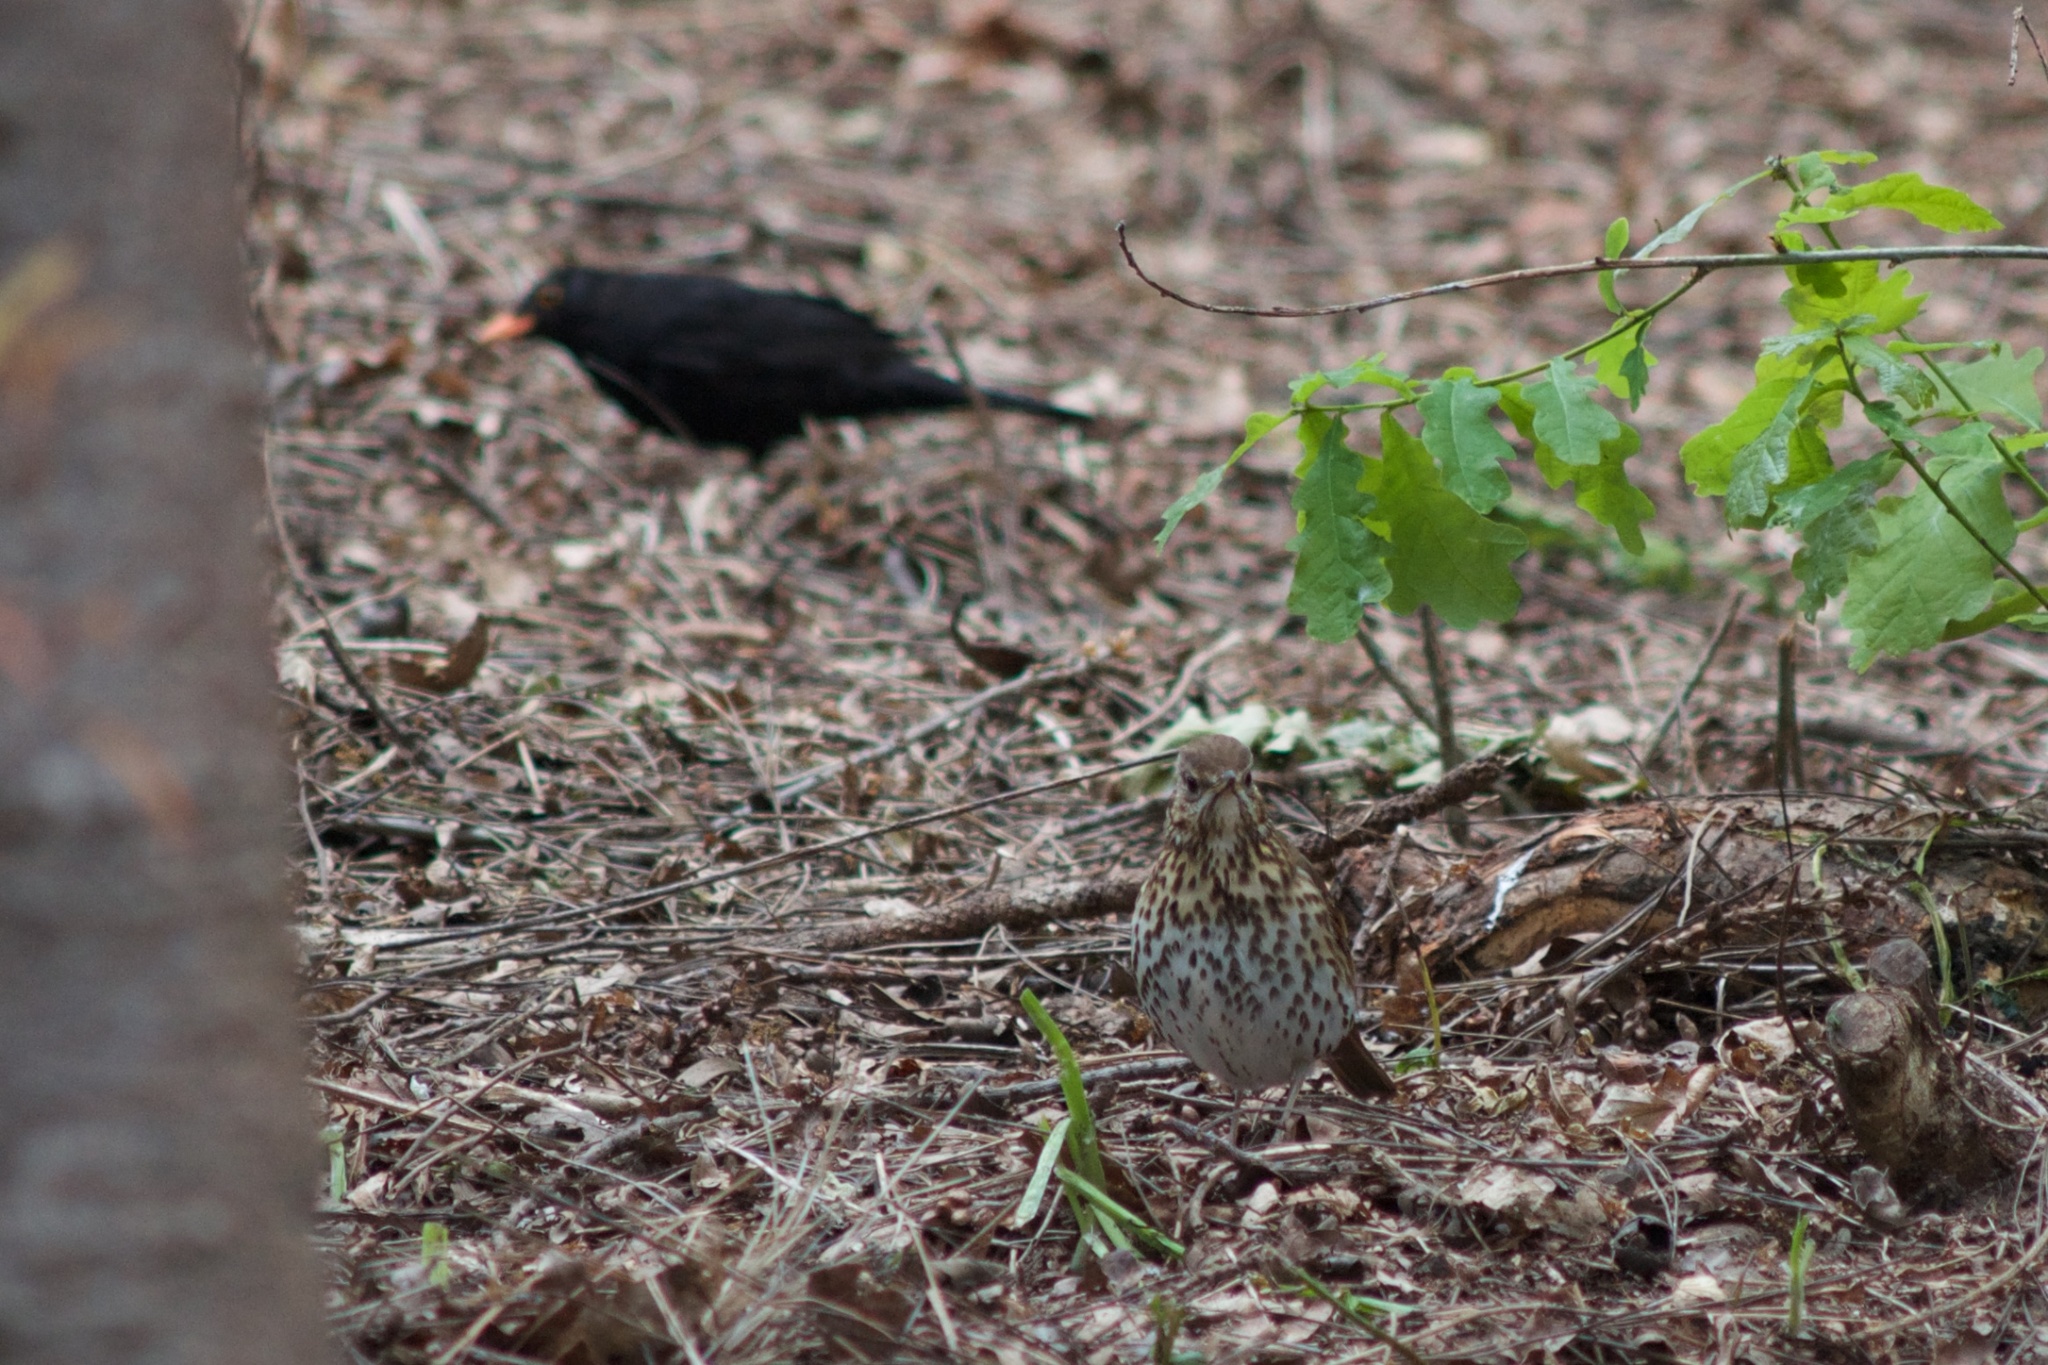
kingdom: Animalia
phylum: Chordata
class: Aves
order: Passeriformes
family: Turdidae
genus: Turdus
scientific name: Turdus philomelos
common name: Song thrush
